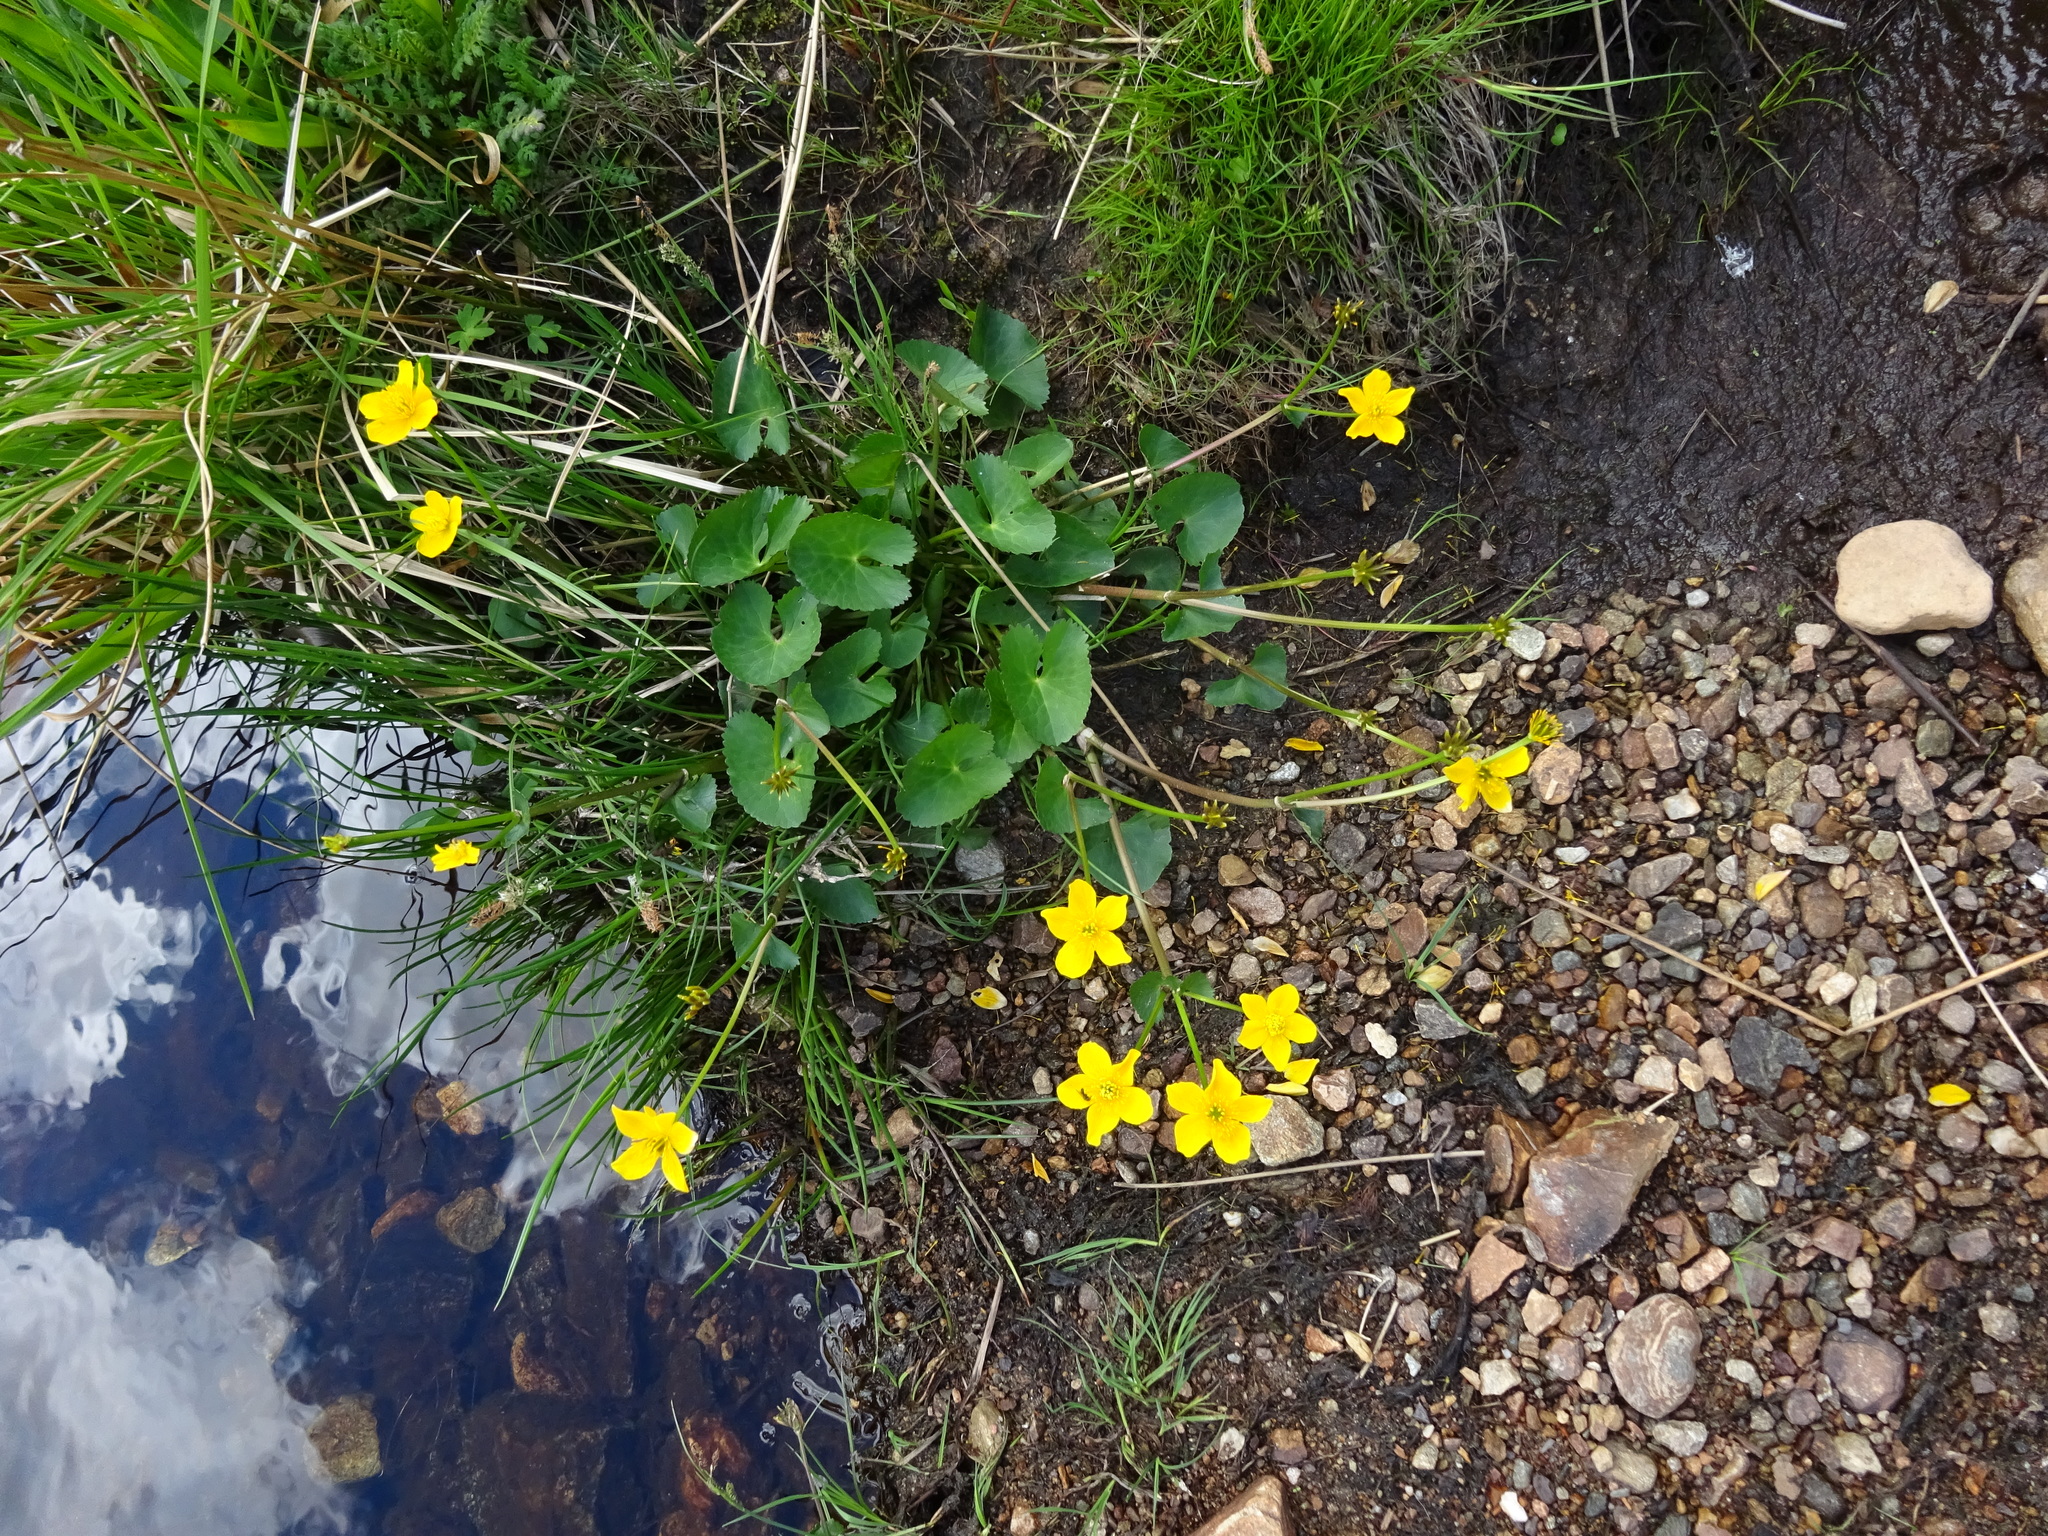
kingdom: Plantae
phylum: Tracheophyta
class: Magnoliopsida
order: Ranunculales
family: Ranunculaceae
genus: Caltha
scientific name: Caltha palustris
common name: Marsh marigold
